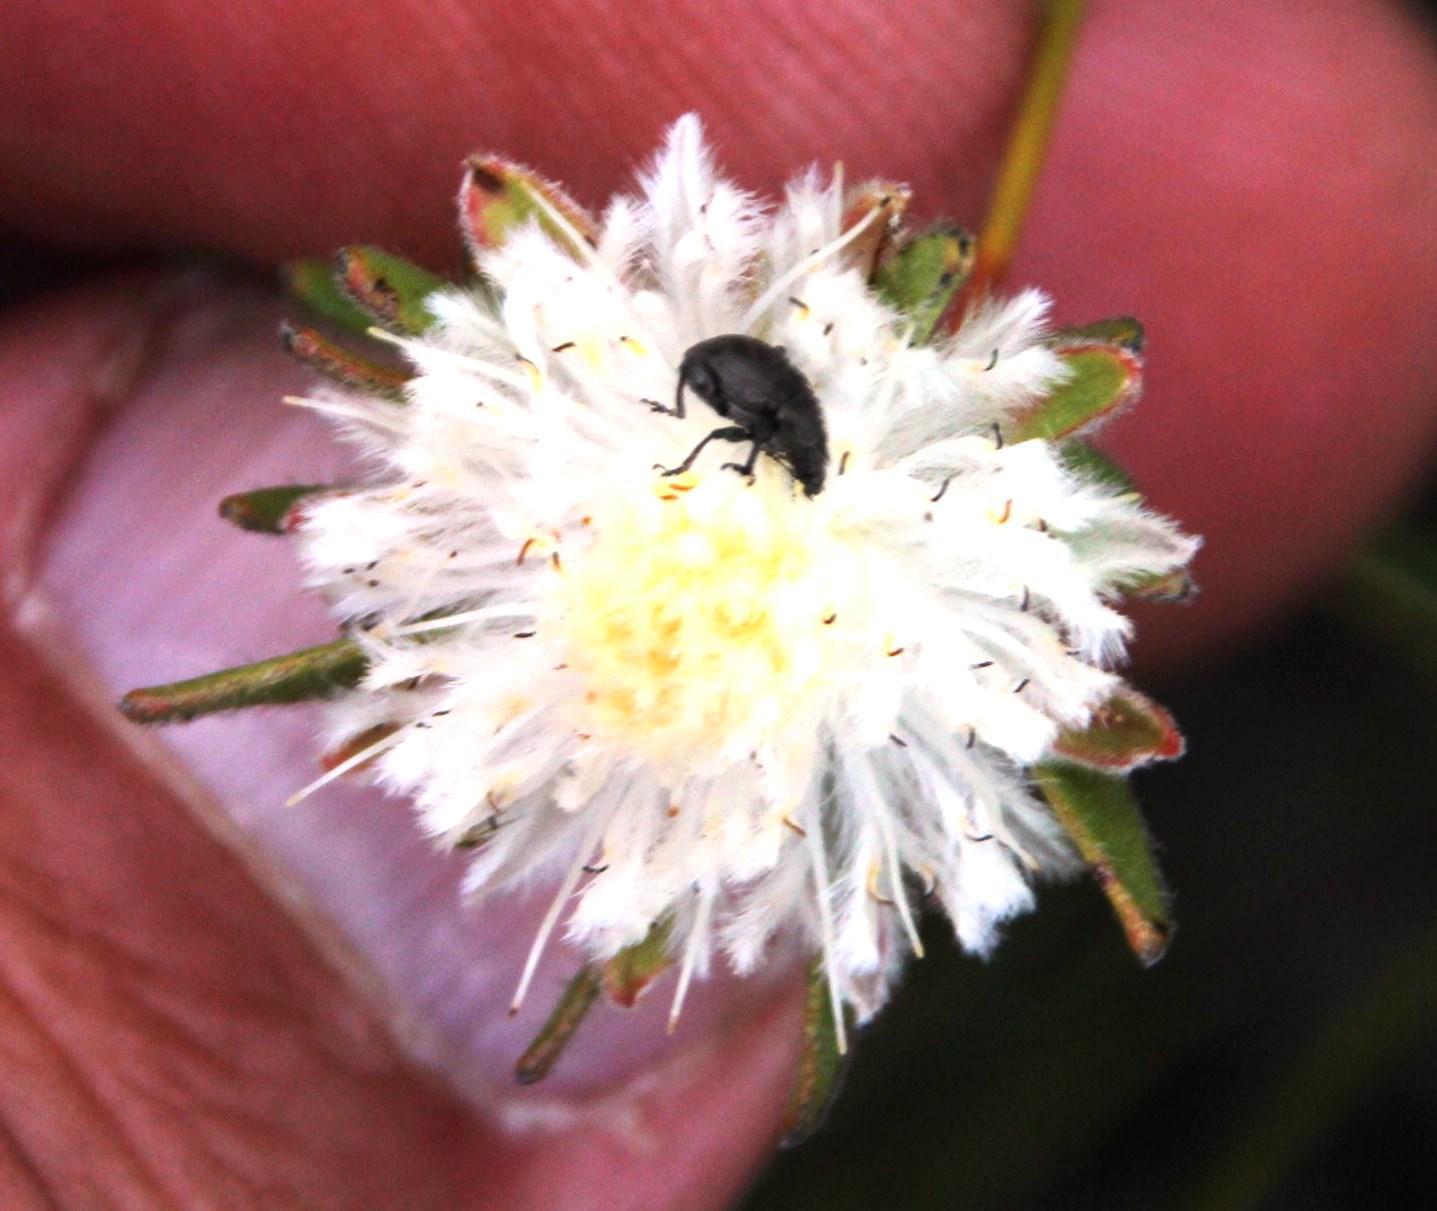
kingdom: Plantae
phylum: Tracheophyta
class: Magnoliopsida
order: Proteales
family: Proteaceae
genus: Diastella
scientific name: Diastella fraterna
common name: Palmiet silkypuff
